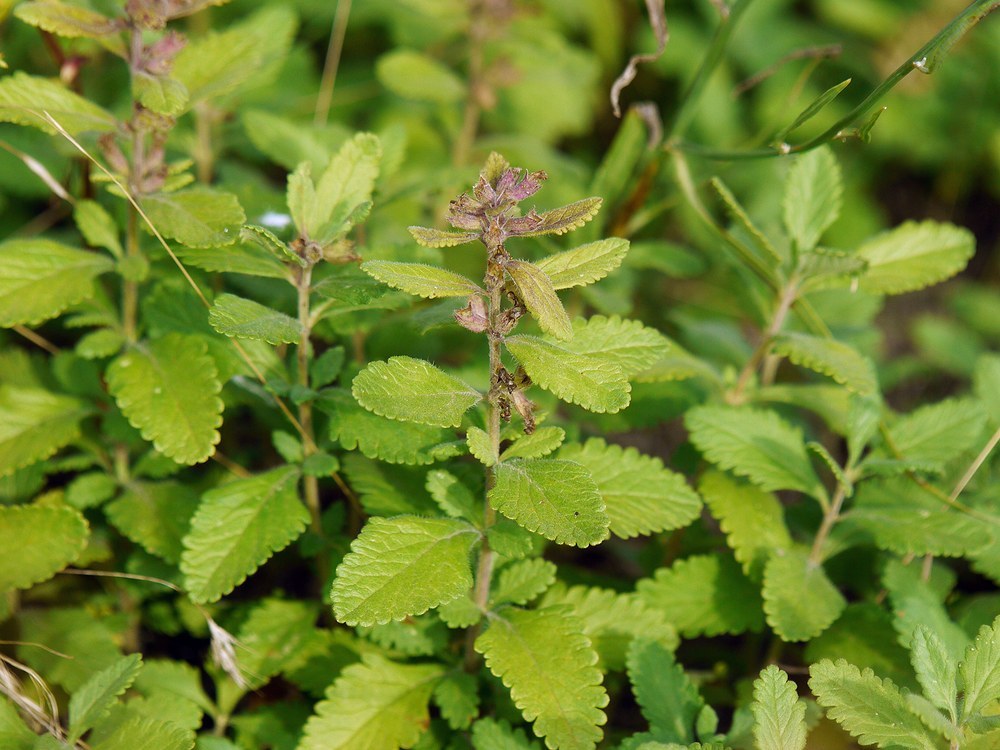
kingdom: Plantae
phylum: Tracheophyta
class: Magnoliopsida
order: Lamiales
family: Lamiaceae
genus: Teucrium
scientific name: Teucrium chamaedrys
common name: Wall germander
